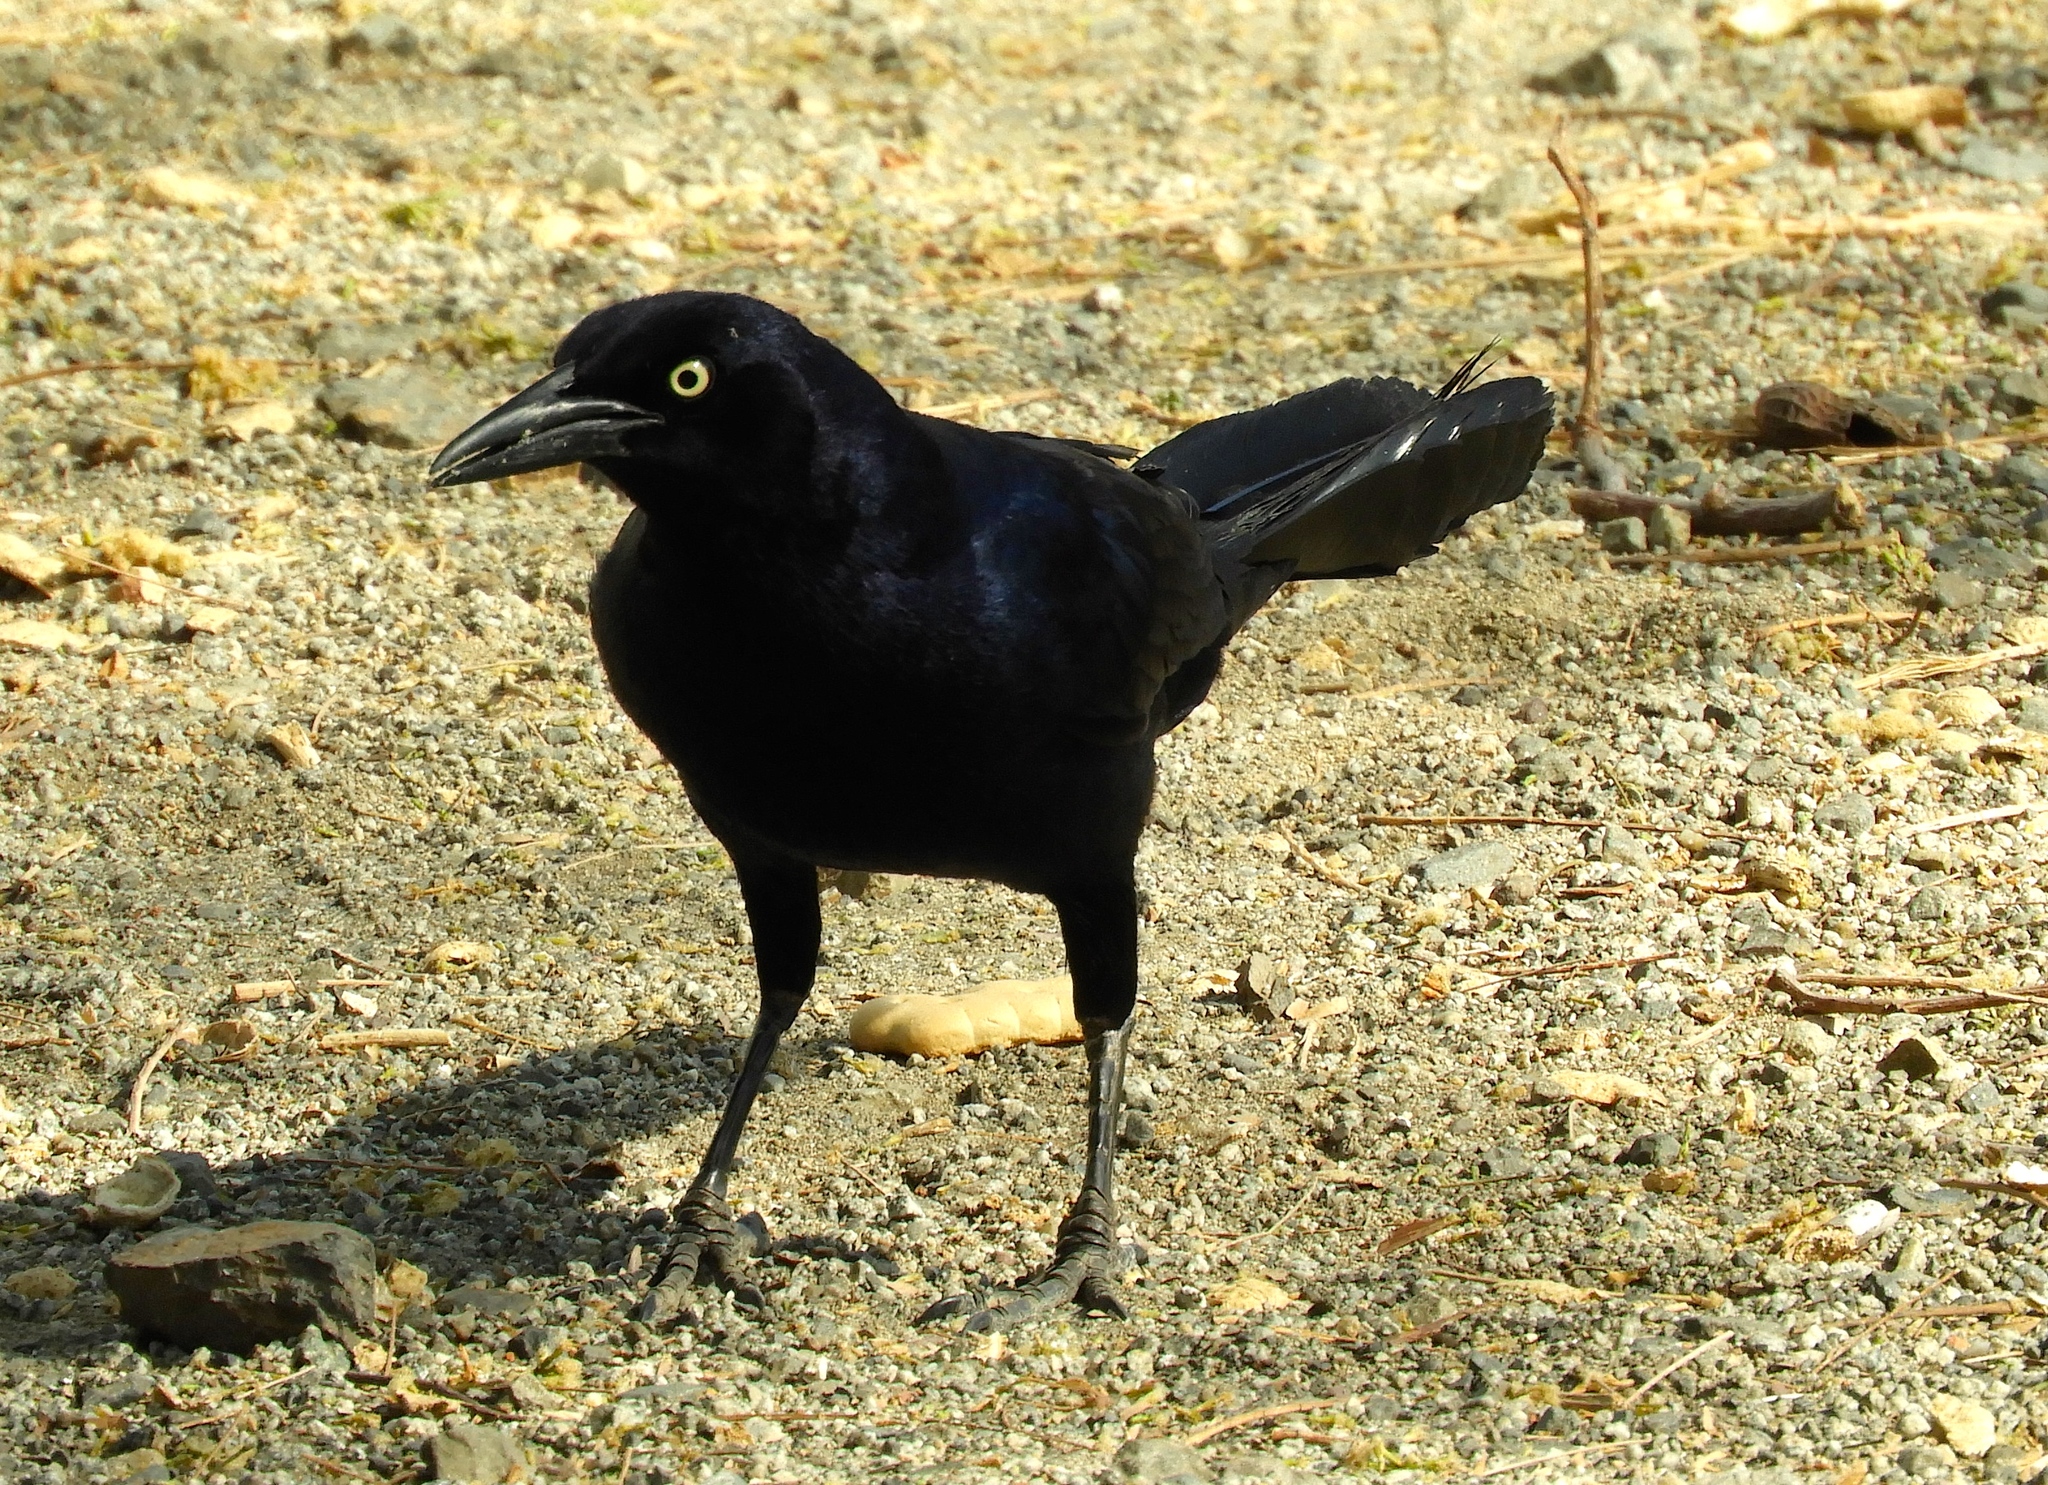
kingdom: Animalia
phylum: Chordata
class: Aves
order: Passeriformes
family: Icteridae
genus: Quiscalus
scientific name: Quiscalus mexicanus
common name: Great-tailed grackle
